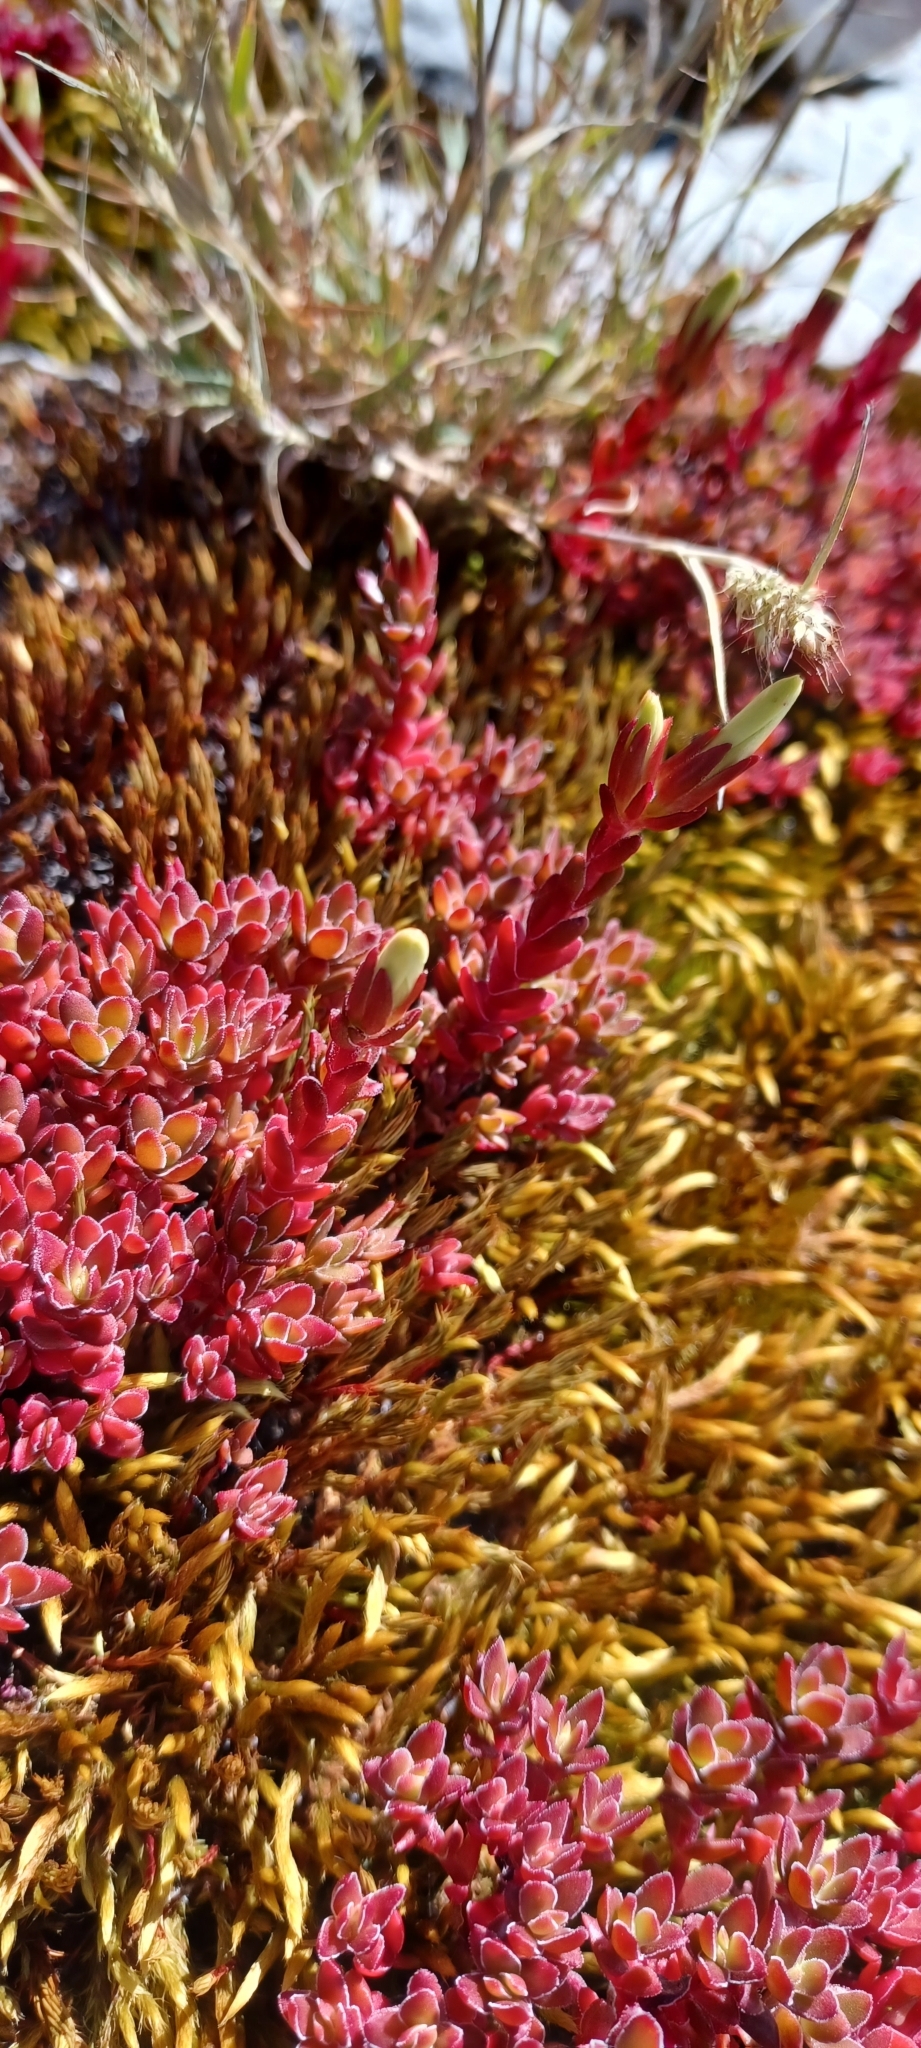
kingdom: Plantae
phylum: Tracheophyta
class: Magnoliopsida
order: Saxifragales
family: Crassulaceae
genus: Crassula
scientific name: Crassula obtusa
